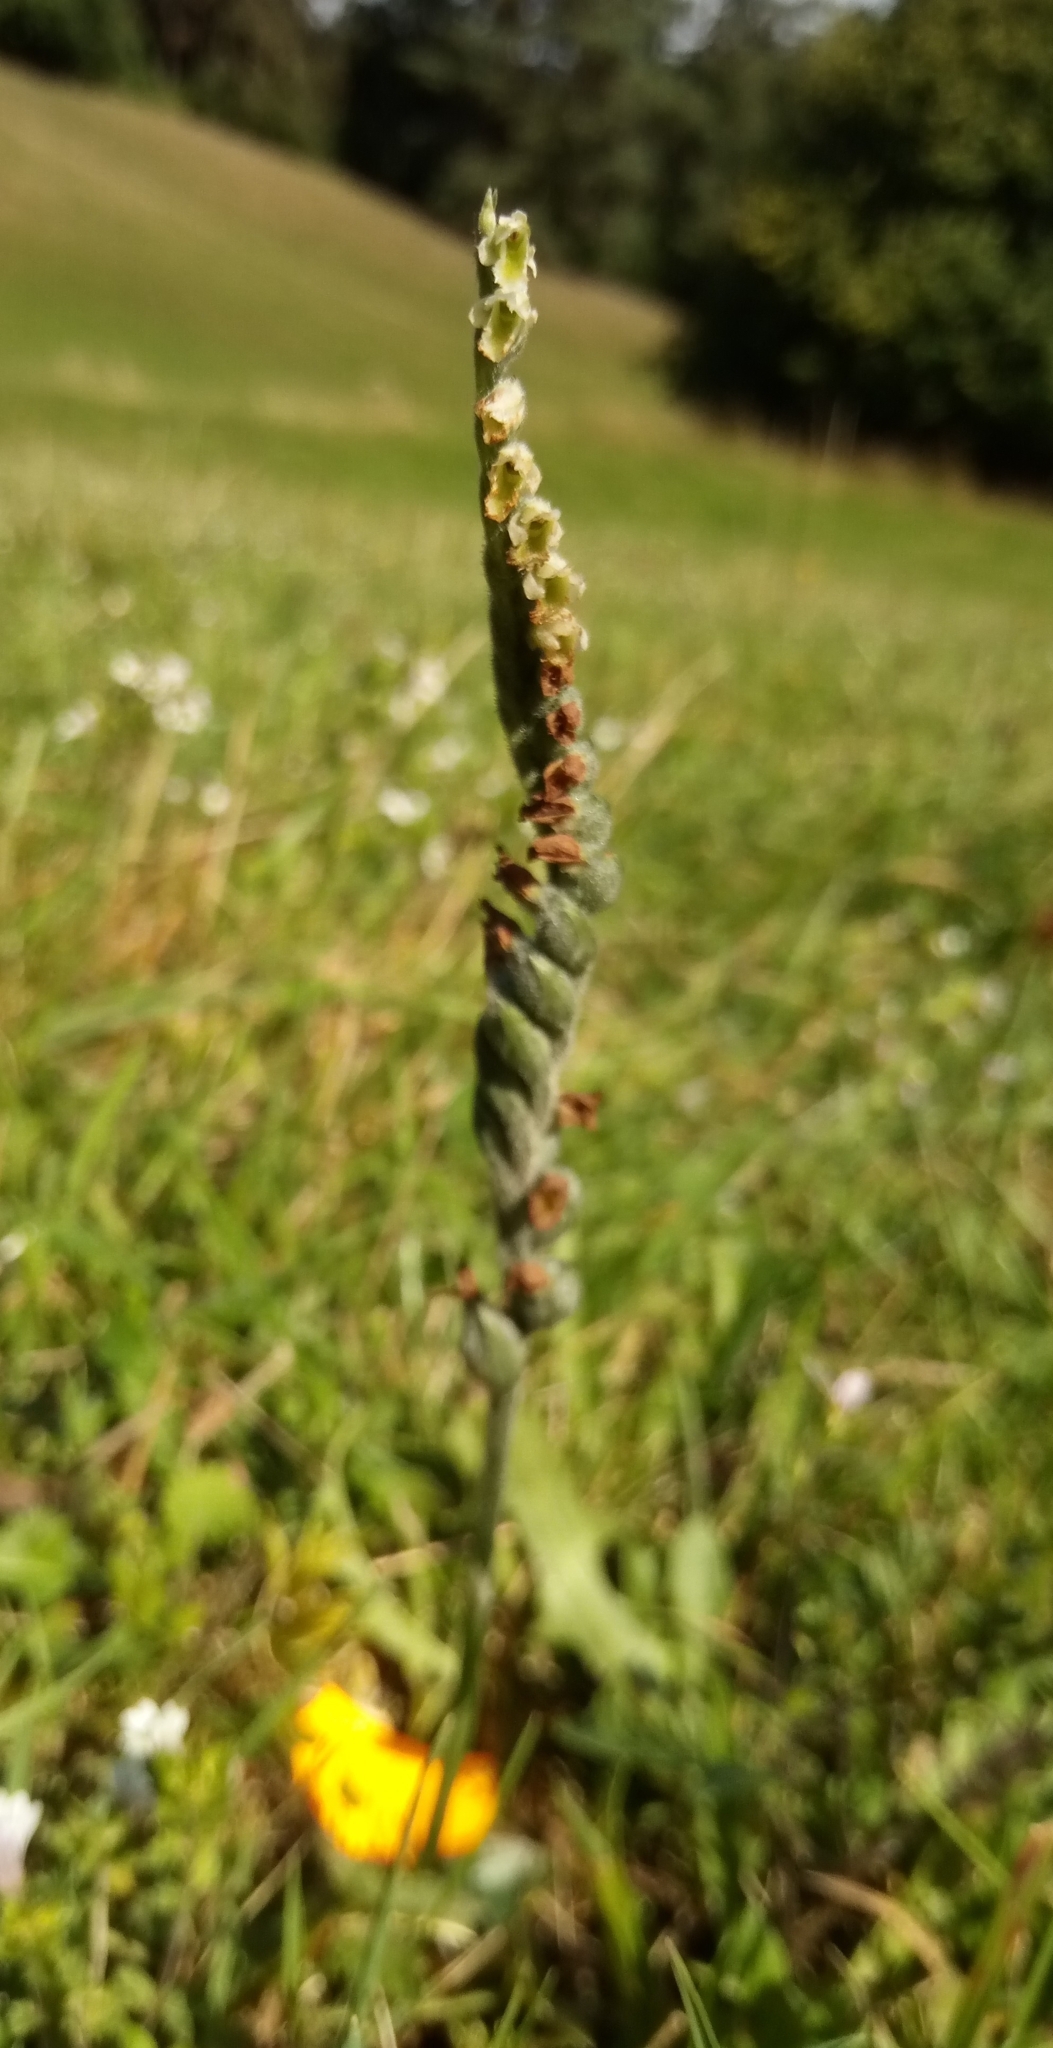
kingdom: Plantae
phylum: Tracheophyta
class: Liliopsida
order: Asparagales
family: Orchidaceae
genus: Spiranthes
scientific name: Spiranthes spiralis
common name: Autumn lady's-tresses
